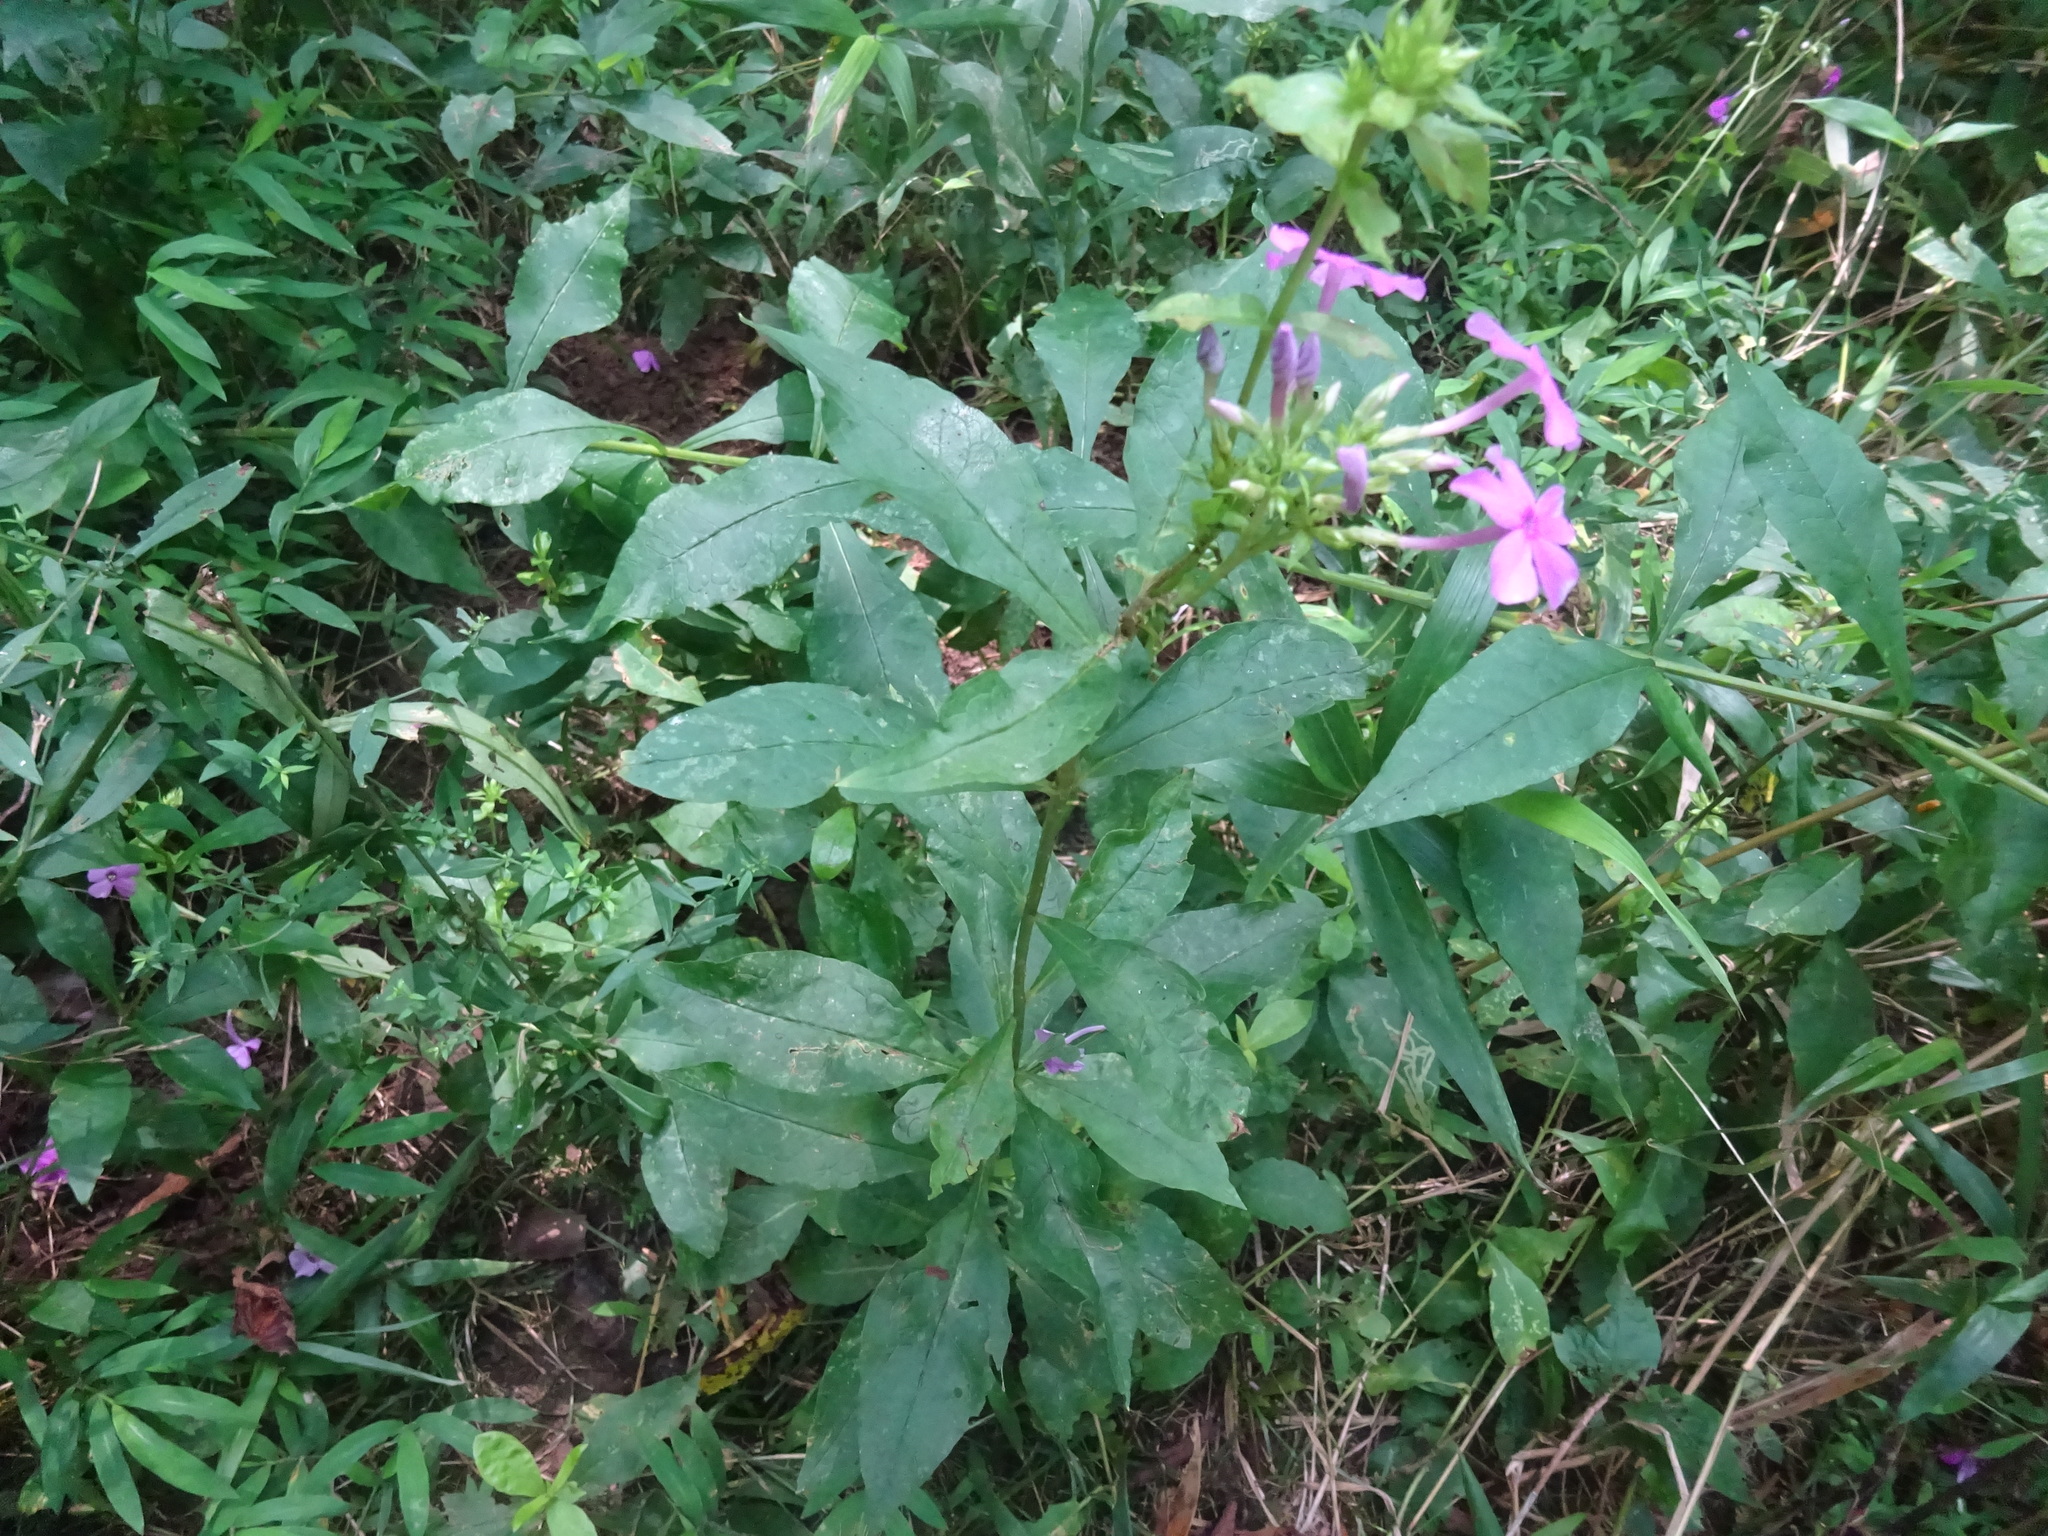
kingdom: Plantae
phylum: Tracheophyta
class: Magnoliopsida
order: Ericales
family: Polemoniaceae
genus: Phlox
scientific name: Phlox paniculata
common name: Fall phlox
